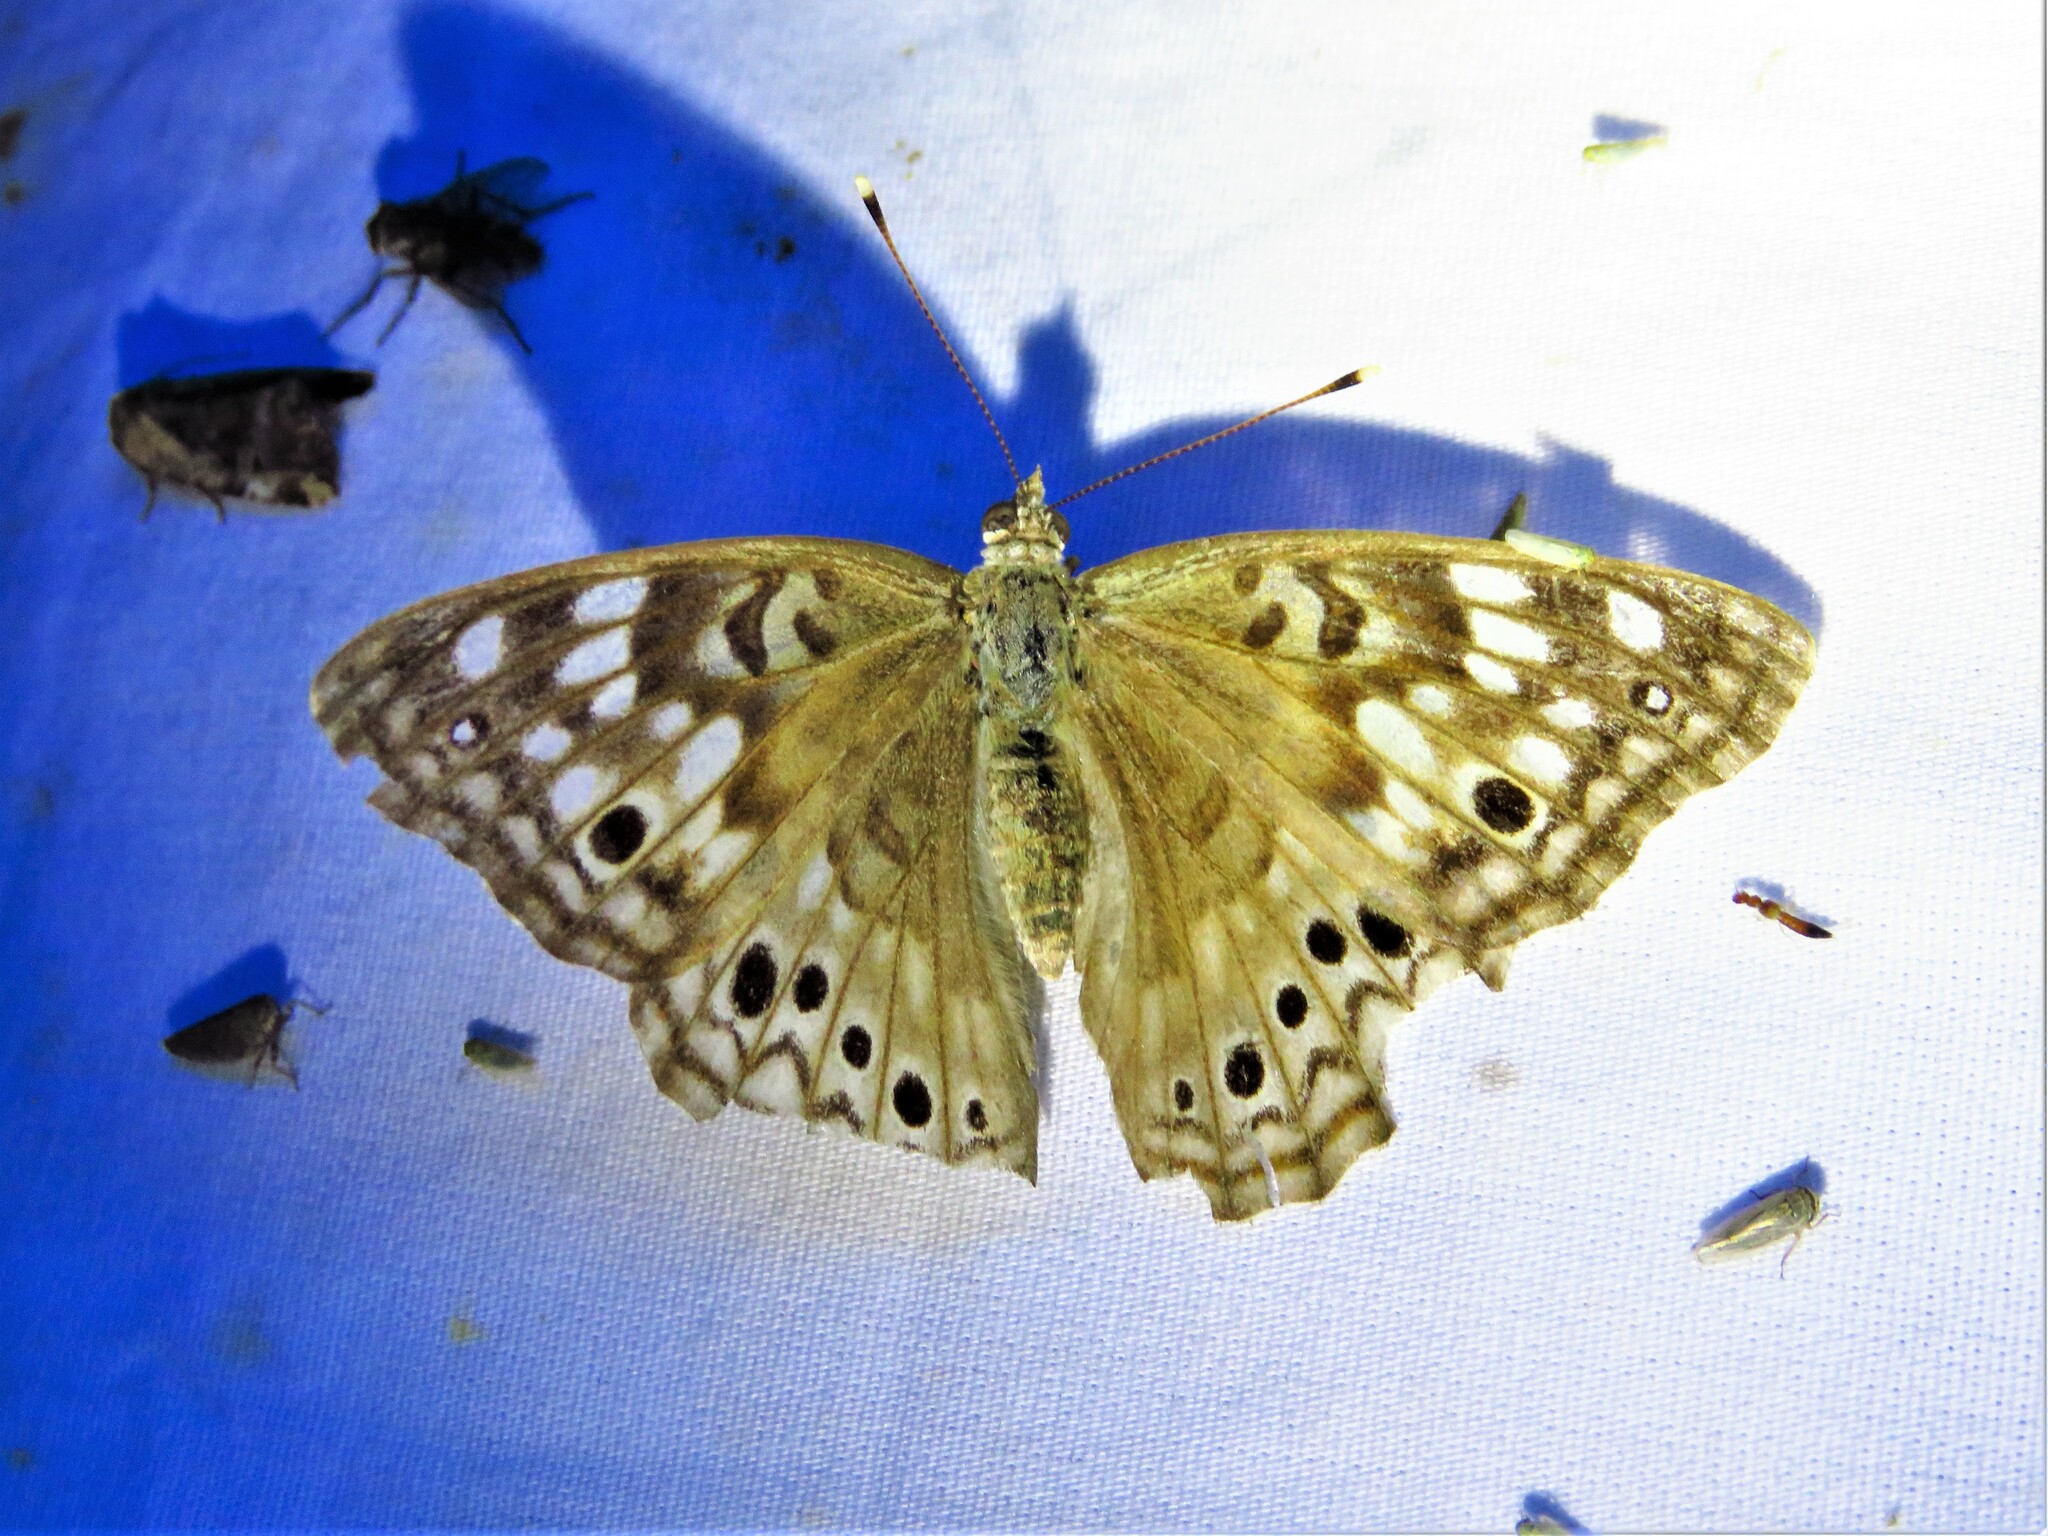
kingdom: Animalia
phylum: Arthropoda
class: Insecta
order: Lepidoptera
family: Nymphalidae
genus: Asterocampa
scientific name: Asterocampa celtis
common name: Hackberry emperor
